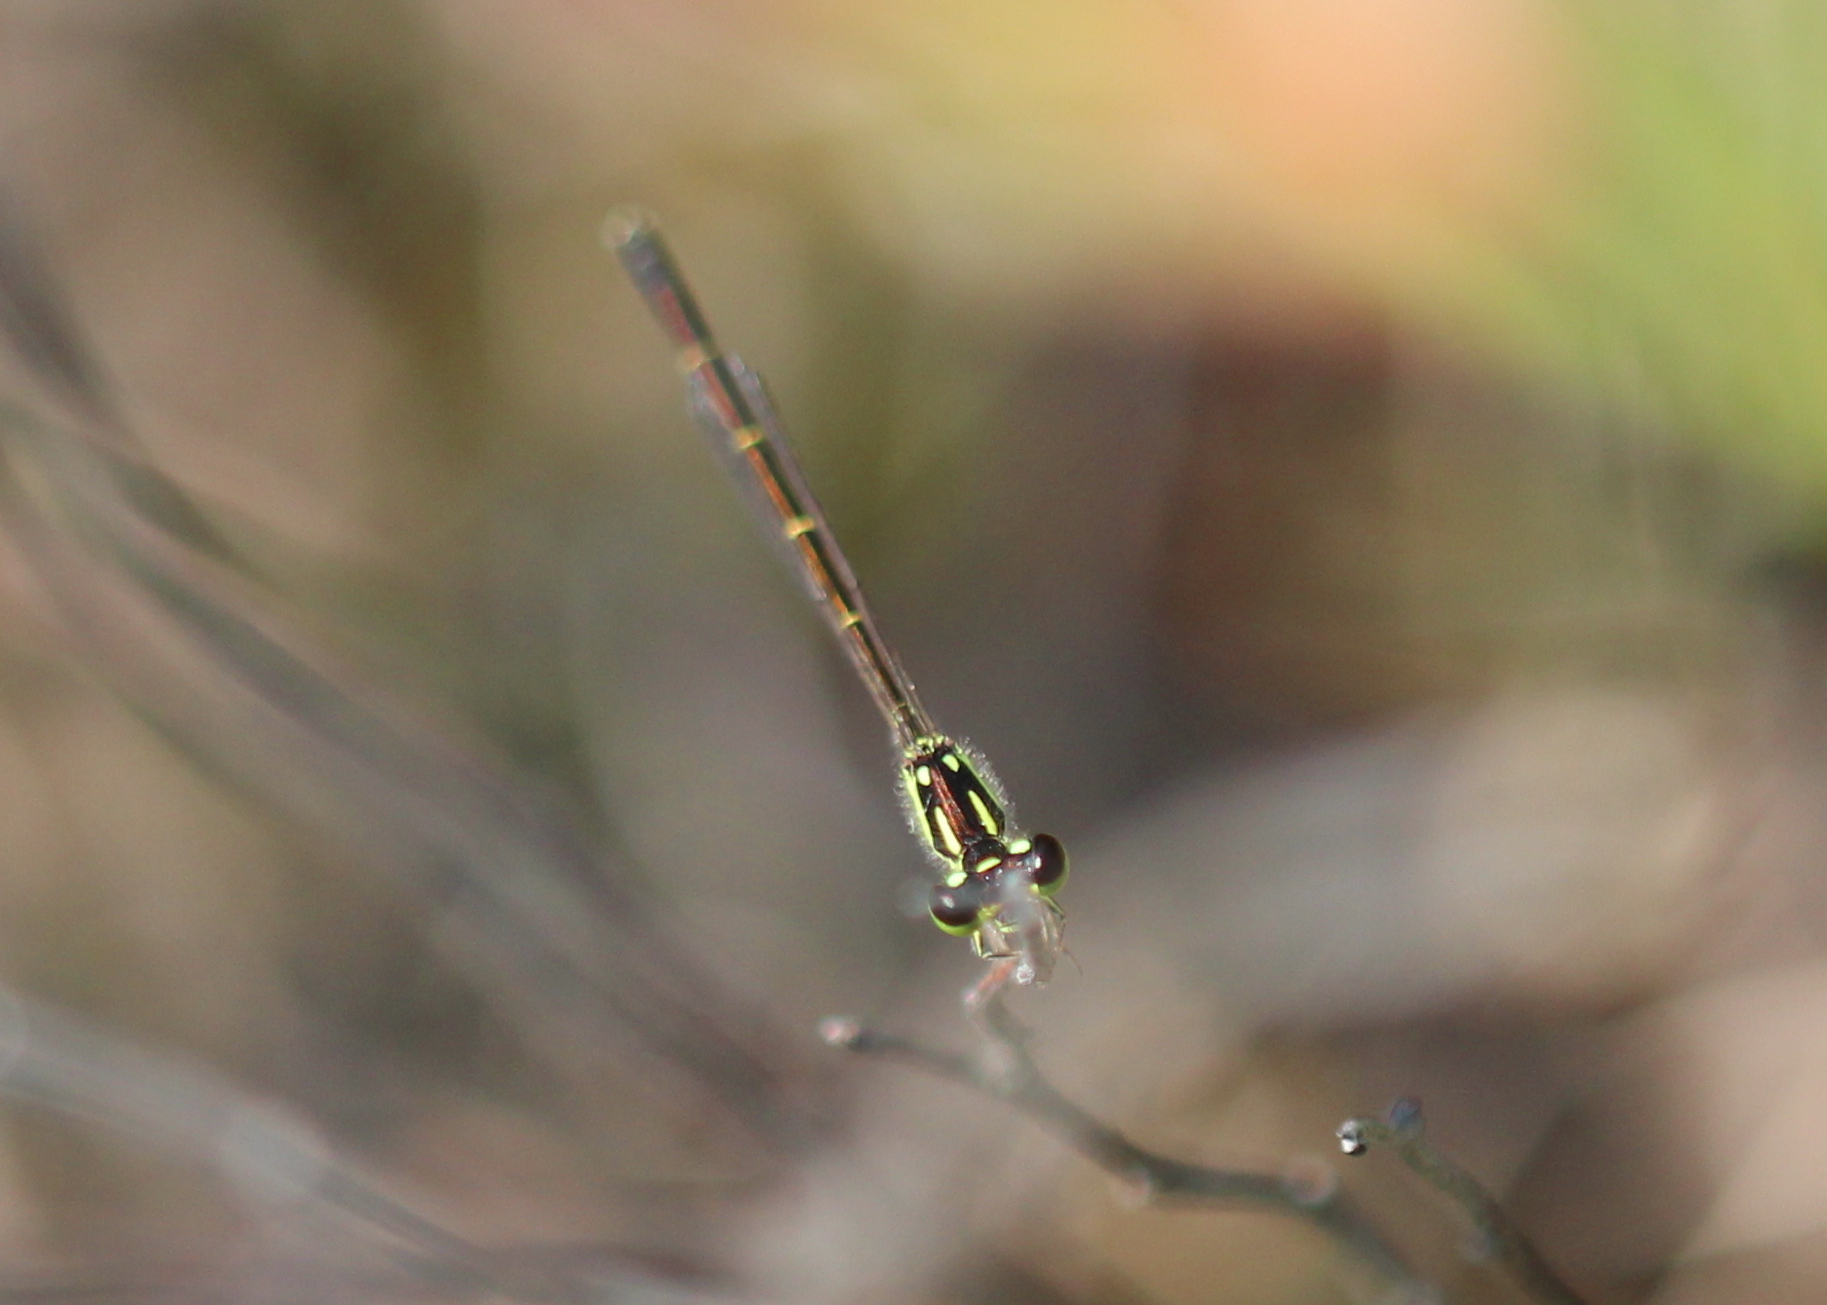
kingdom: Animalia
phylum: Arthropoda
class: Insecta
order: Odonata
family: Coenagrionidae
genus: Ischnura
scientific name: Ischnura posita
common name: Fragile forktail
